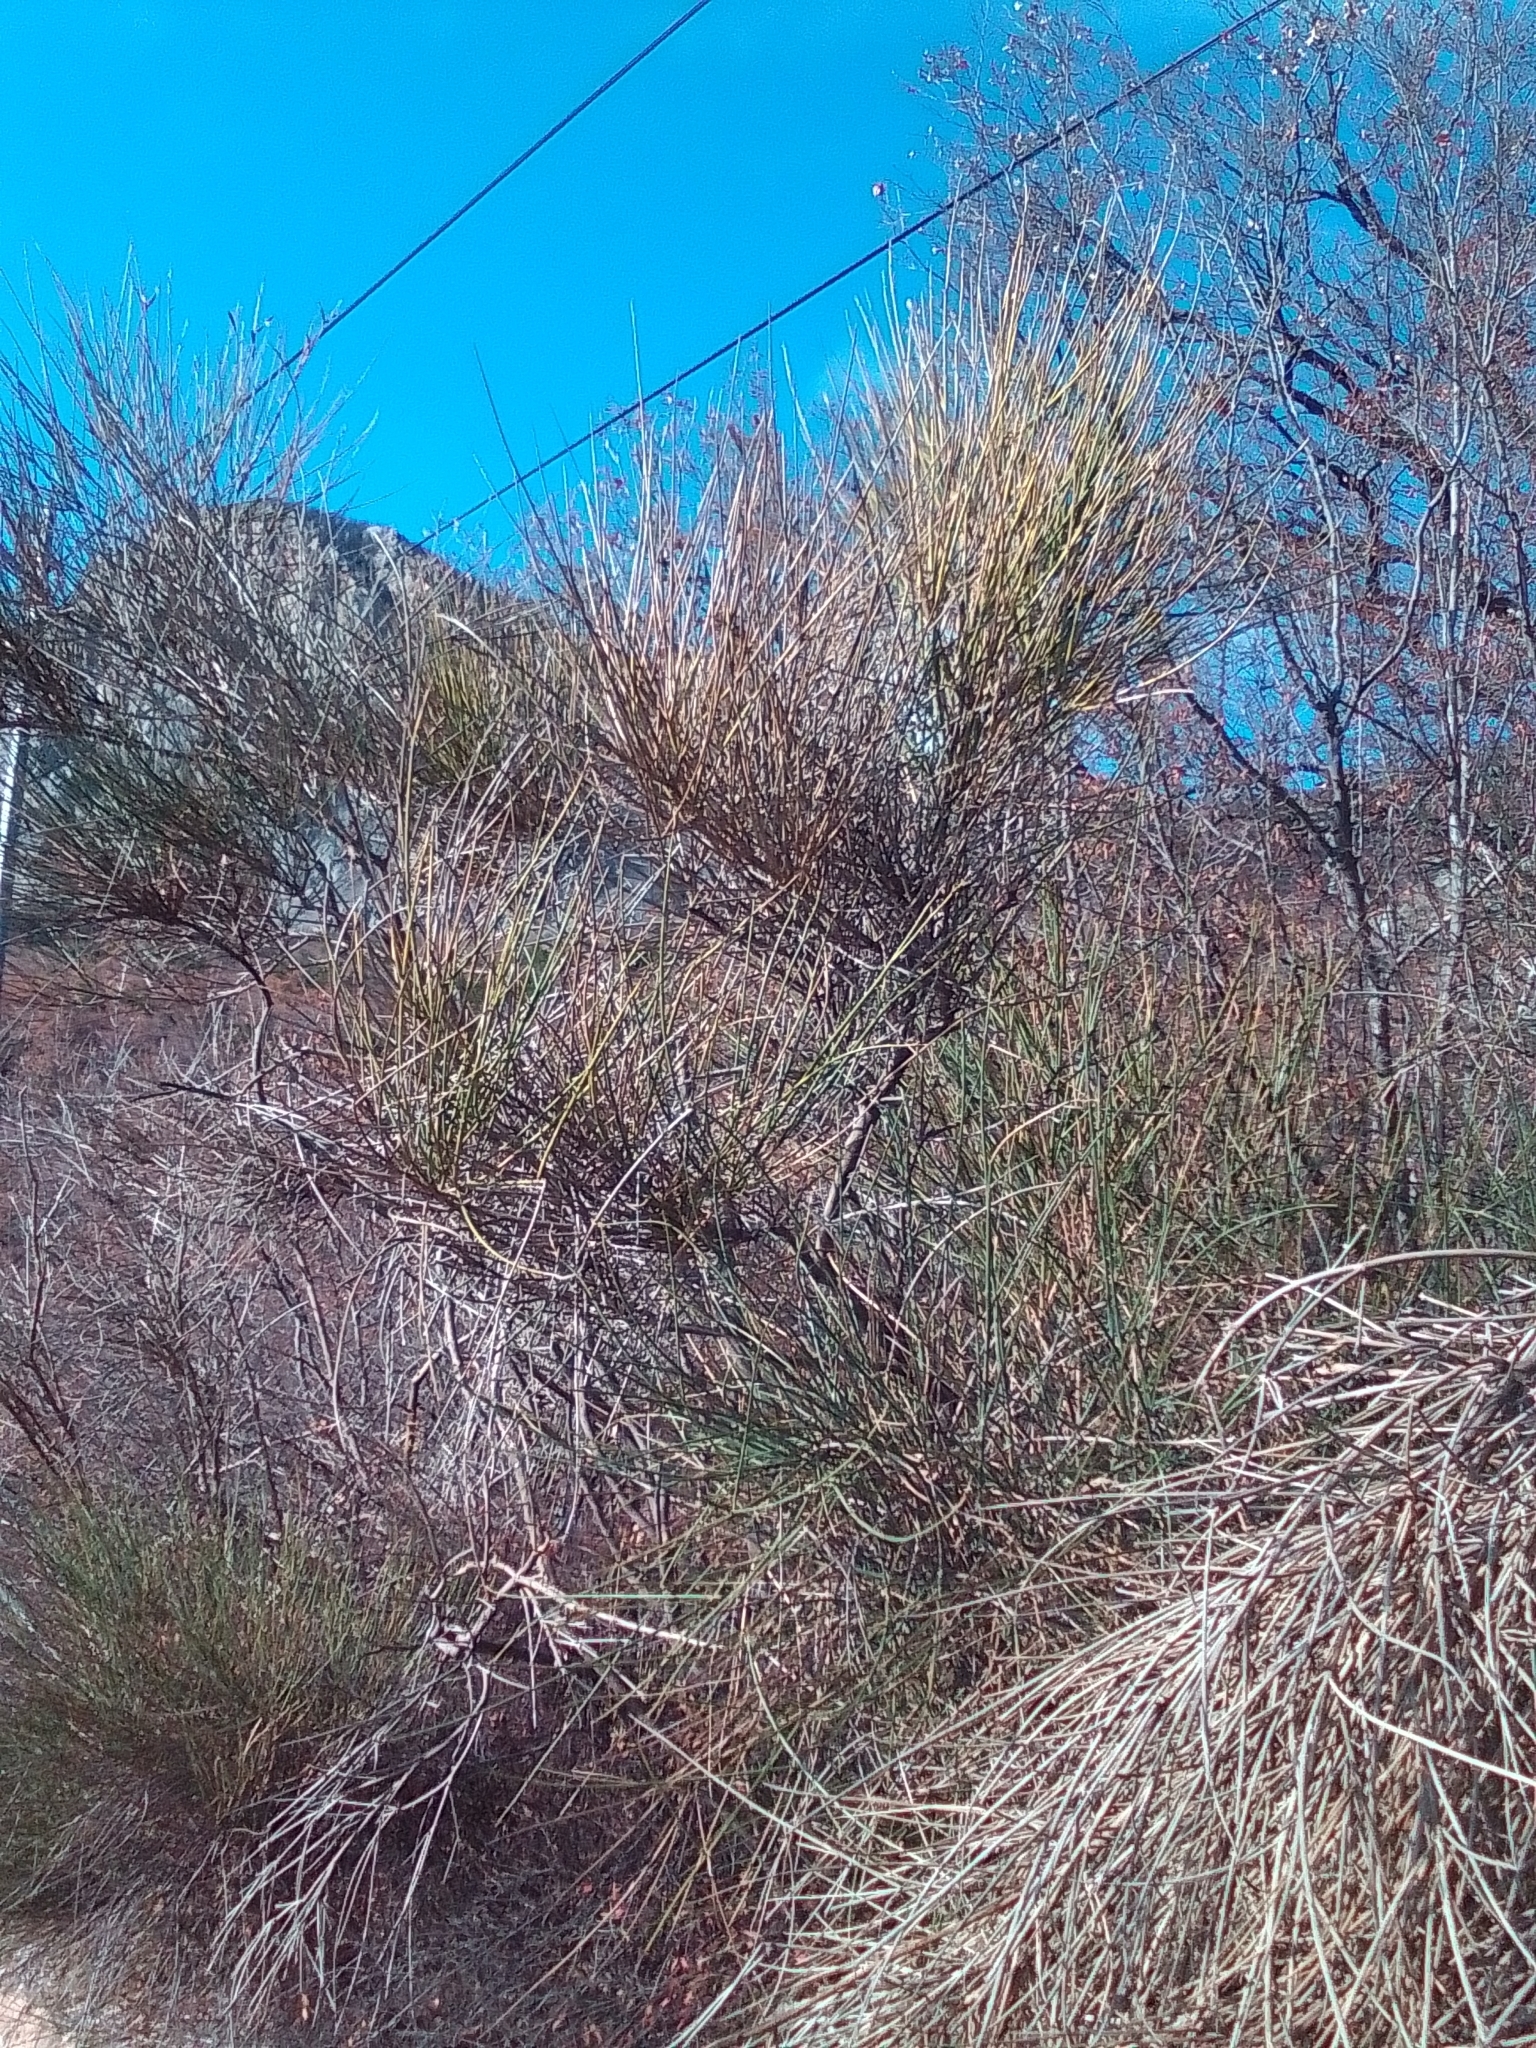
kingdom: Plantae
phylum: Tracheophyta
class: Magnoliopsida
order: Fabales
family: Fabaceae
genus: Spartium
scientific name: Spartium junceum
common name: Spanish broom
